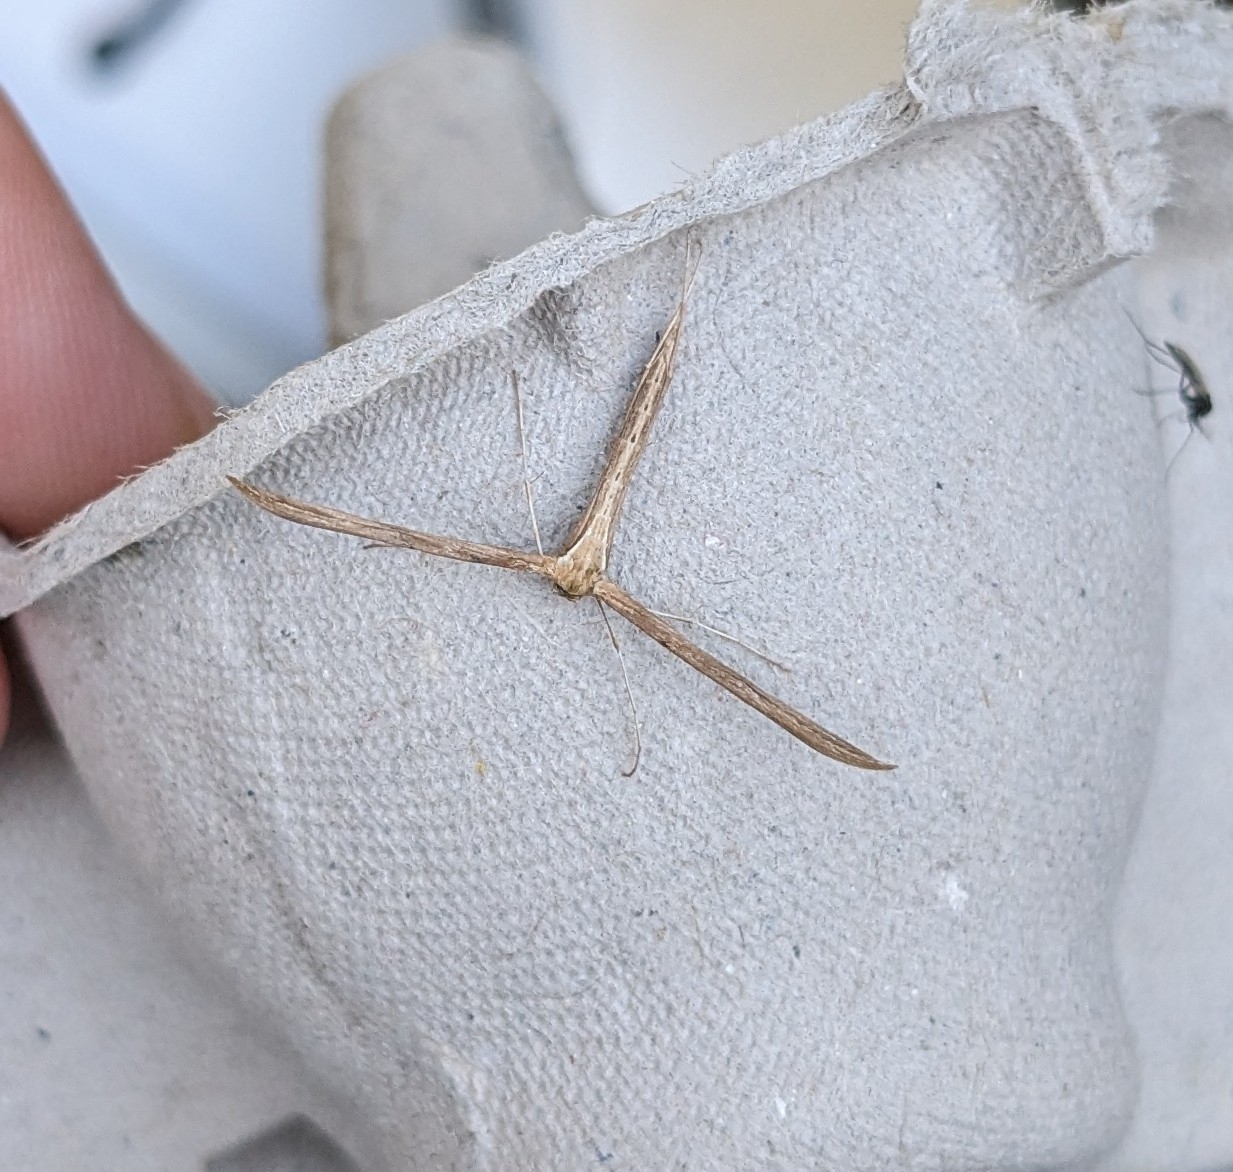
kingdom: Animalia
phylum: Arthropoda
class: Insecta
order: Lepidoptera
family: Pterophoridae
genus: Emmelina
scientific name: Emmelina monodactyla
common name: Common plume
